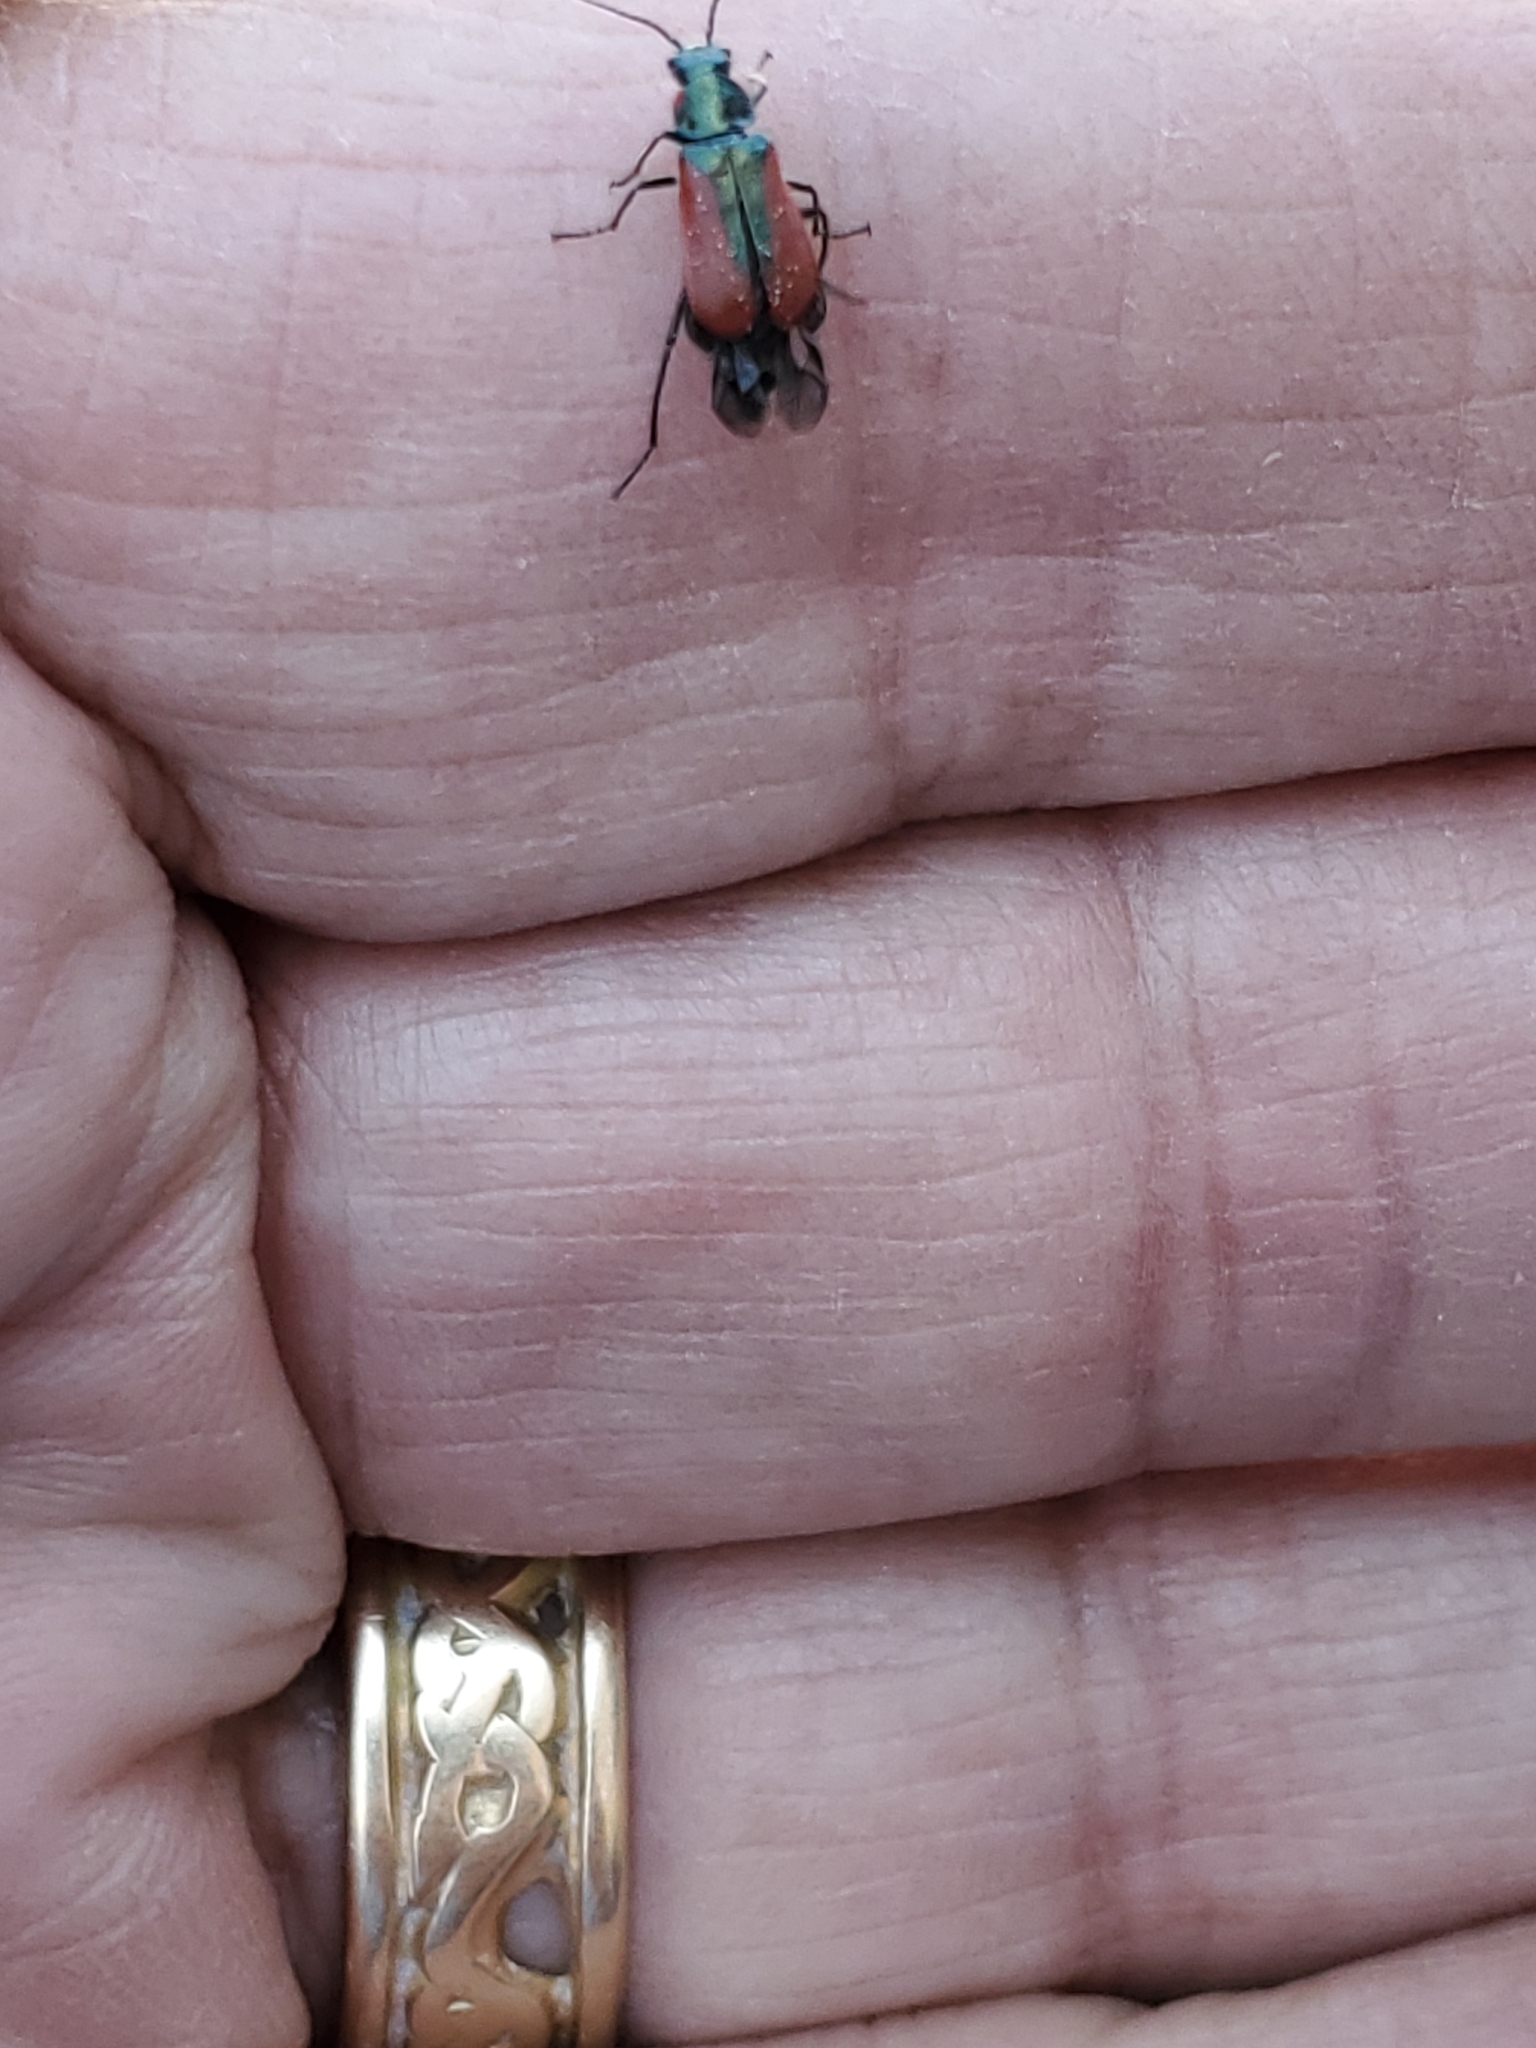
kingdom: Animalia
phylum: Arthropoda
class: Insecta
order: Coleoptera
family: Melyridae
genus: Malachius
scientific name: Malachius aeneus
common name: Scarlet malachite beetle
